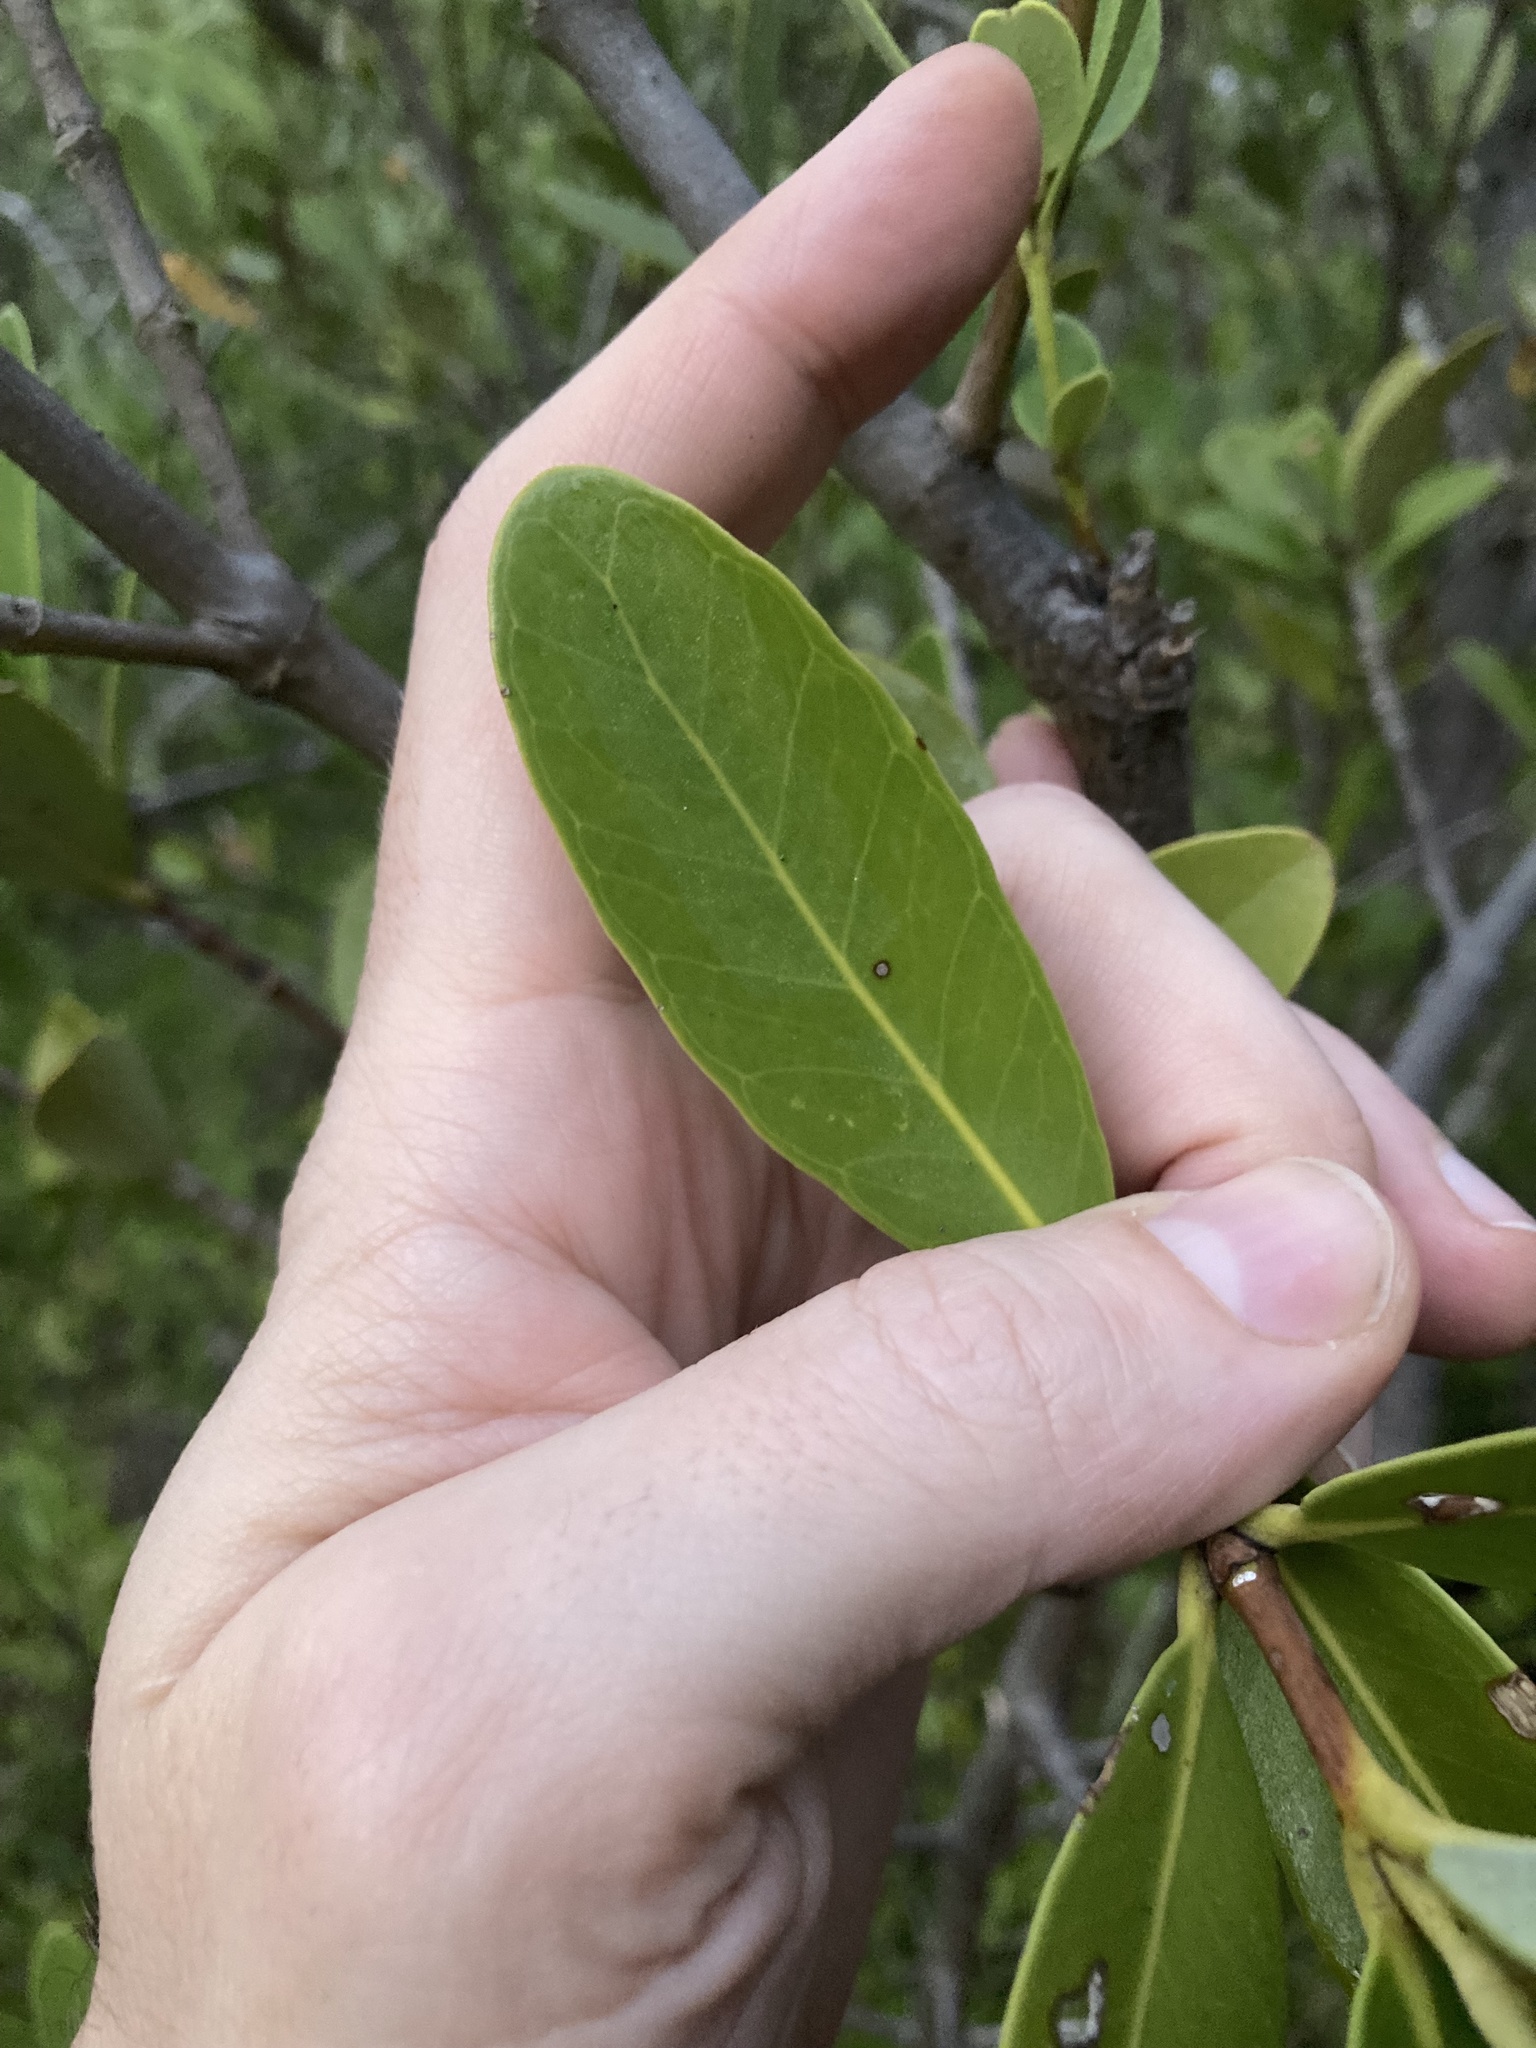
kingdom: Plantae
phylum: Tracheophyta
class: Magnoliopsida
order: Lamiales
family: Acanthaceae
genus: Avicennia
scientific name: Avicennia germinans
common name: Black mangrove
